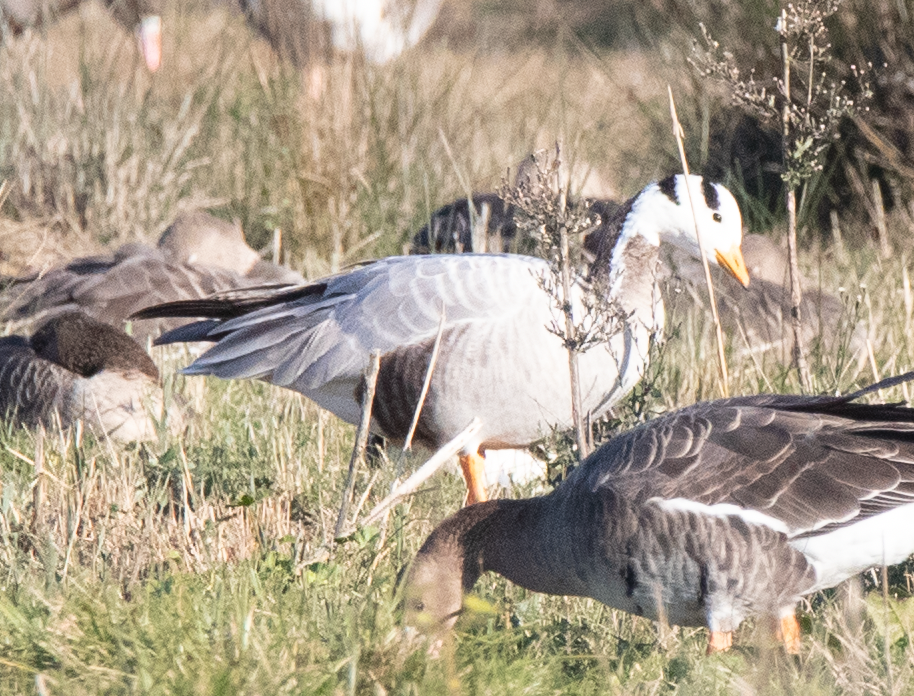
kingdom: Animalia
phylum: Chordata
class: Aves
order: Anseriformes
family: Anatidae
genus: Anser
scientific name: Anser indicus
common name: Bar-headed goose
